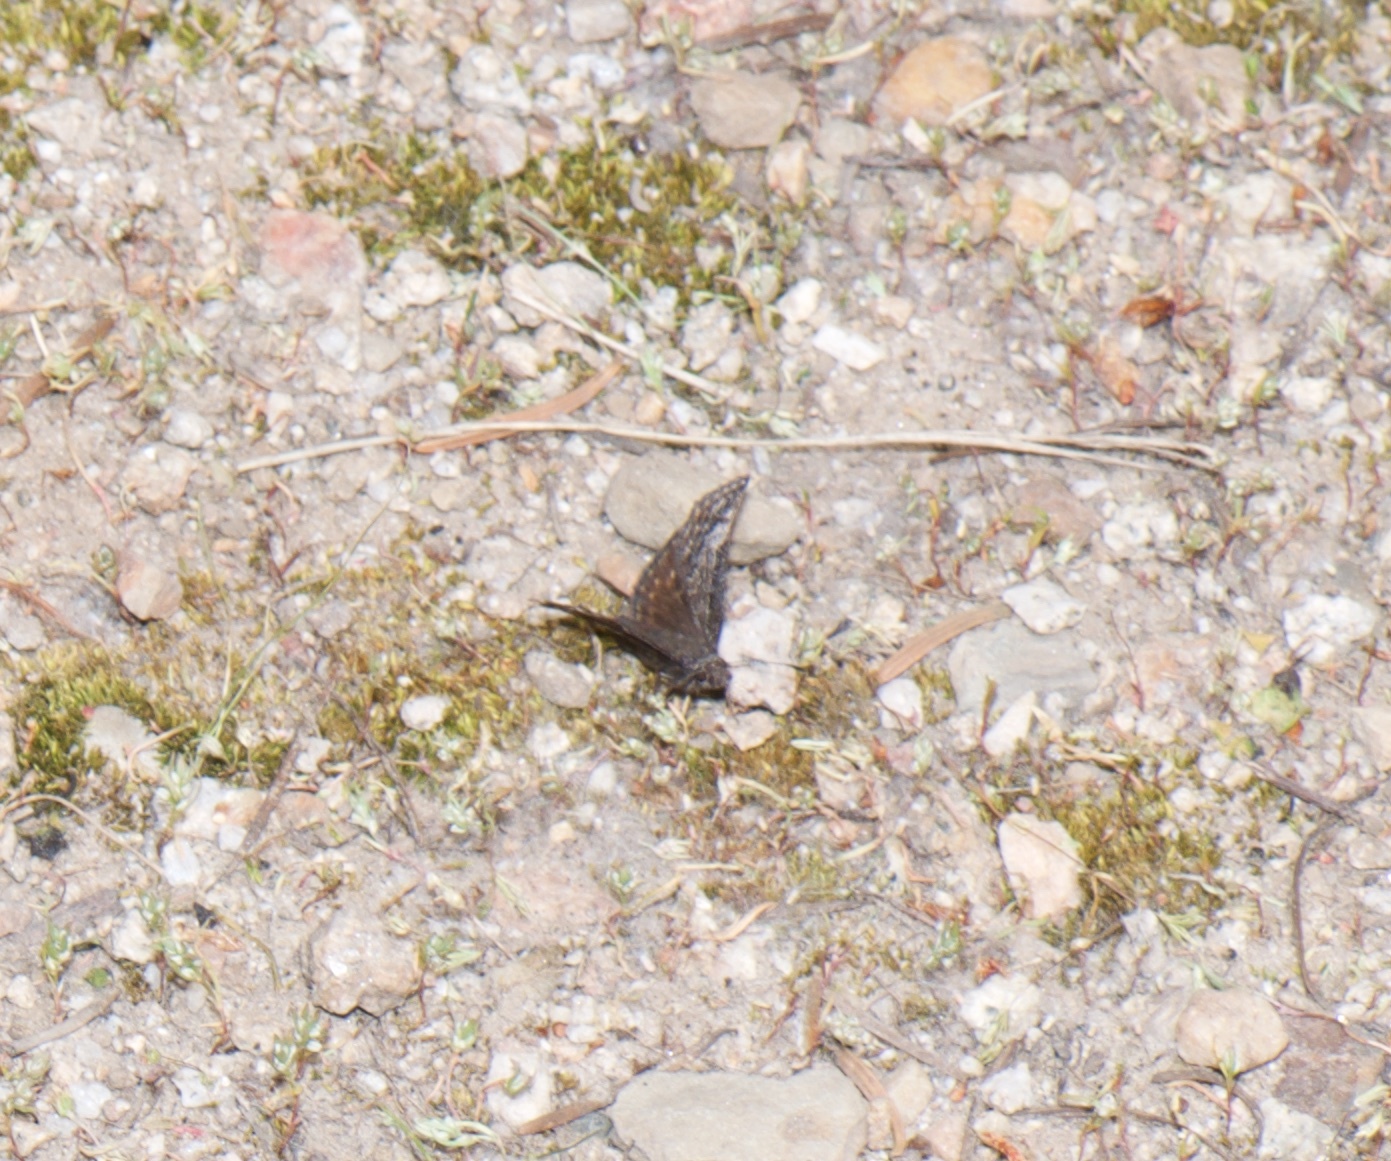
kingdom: Animalia
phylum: Arthropoda
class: Insecta
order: Lepidoptera
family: Hesperiidae
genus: Erynnis
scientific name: Erynnis icelus
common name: Dreamy duskywing
